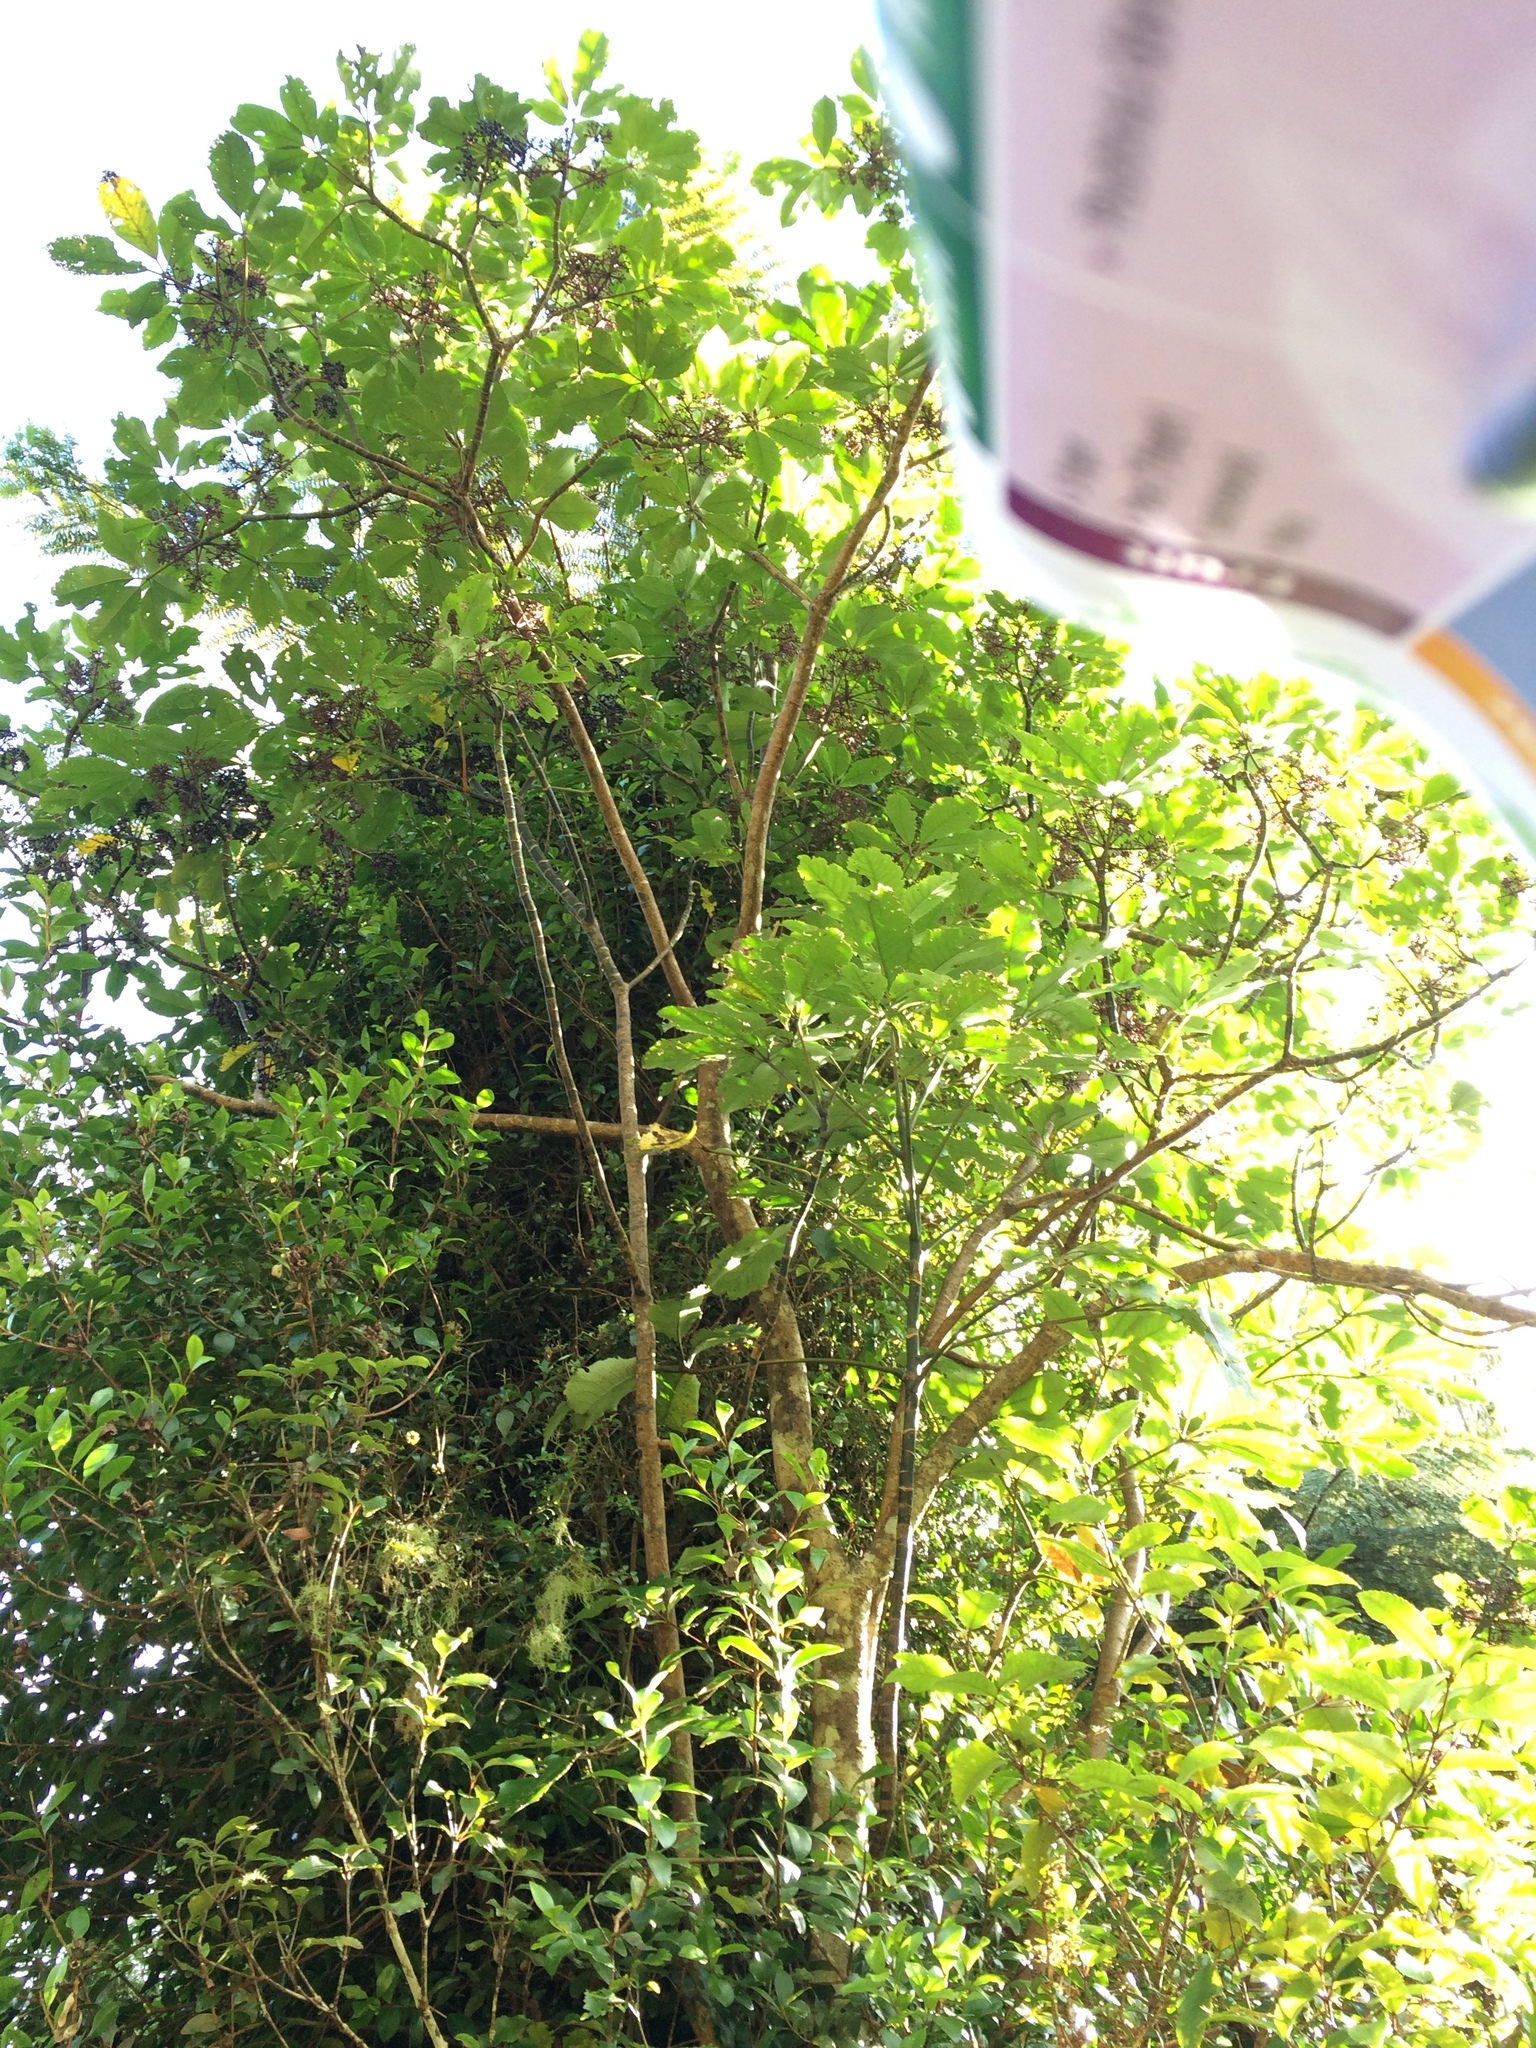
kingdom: Plantae
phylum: Tracheophyta
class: Magnoliopsida
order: Apiales
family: Araliaceae
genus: Neopanax
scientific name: Neopanax arboreus
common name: Five-fingers
